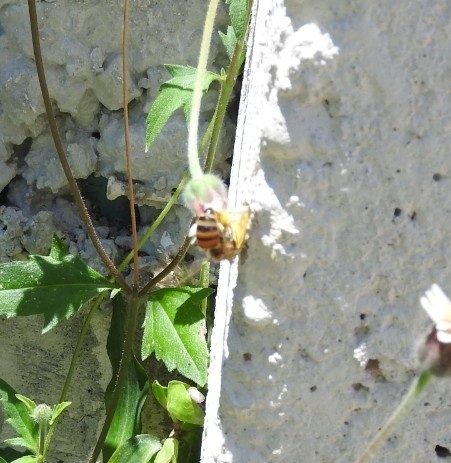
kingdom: Animalia
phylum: Arthropoda
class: Insecta
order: Hymenoptera
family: Apidae
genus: Apis
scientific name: Apis mellifera
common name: Honey bee
